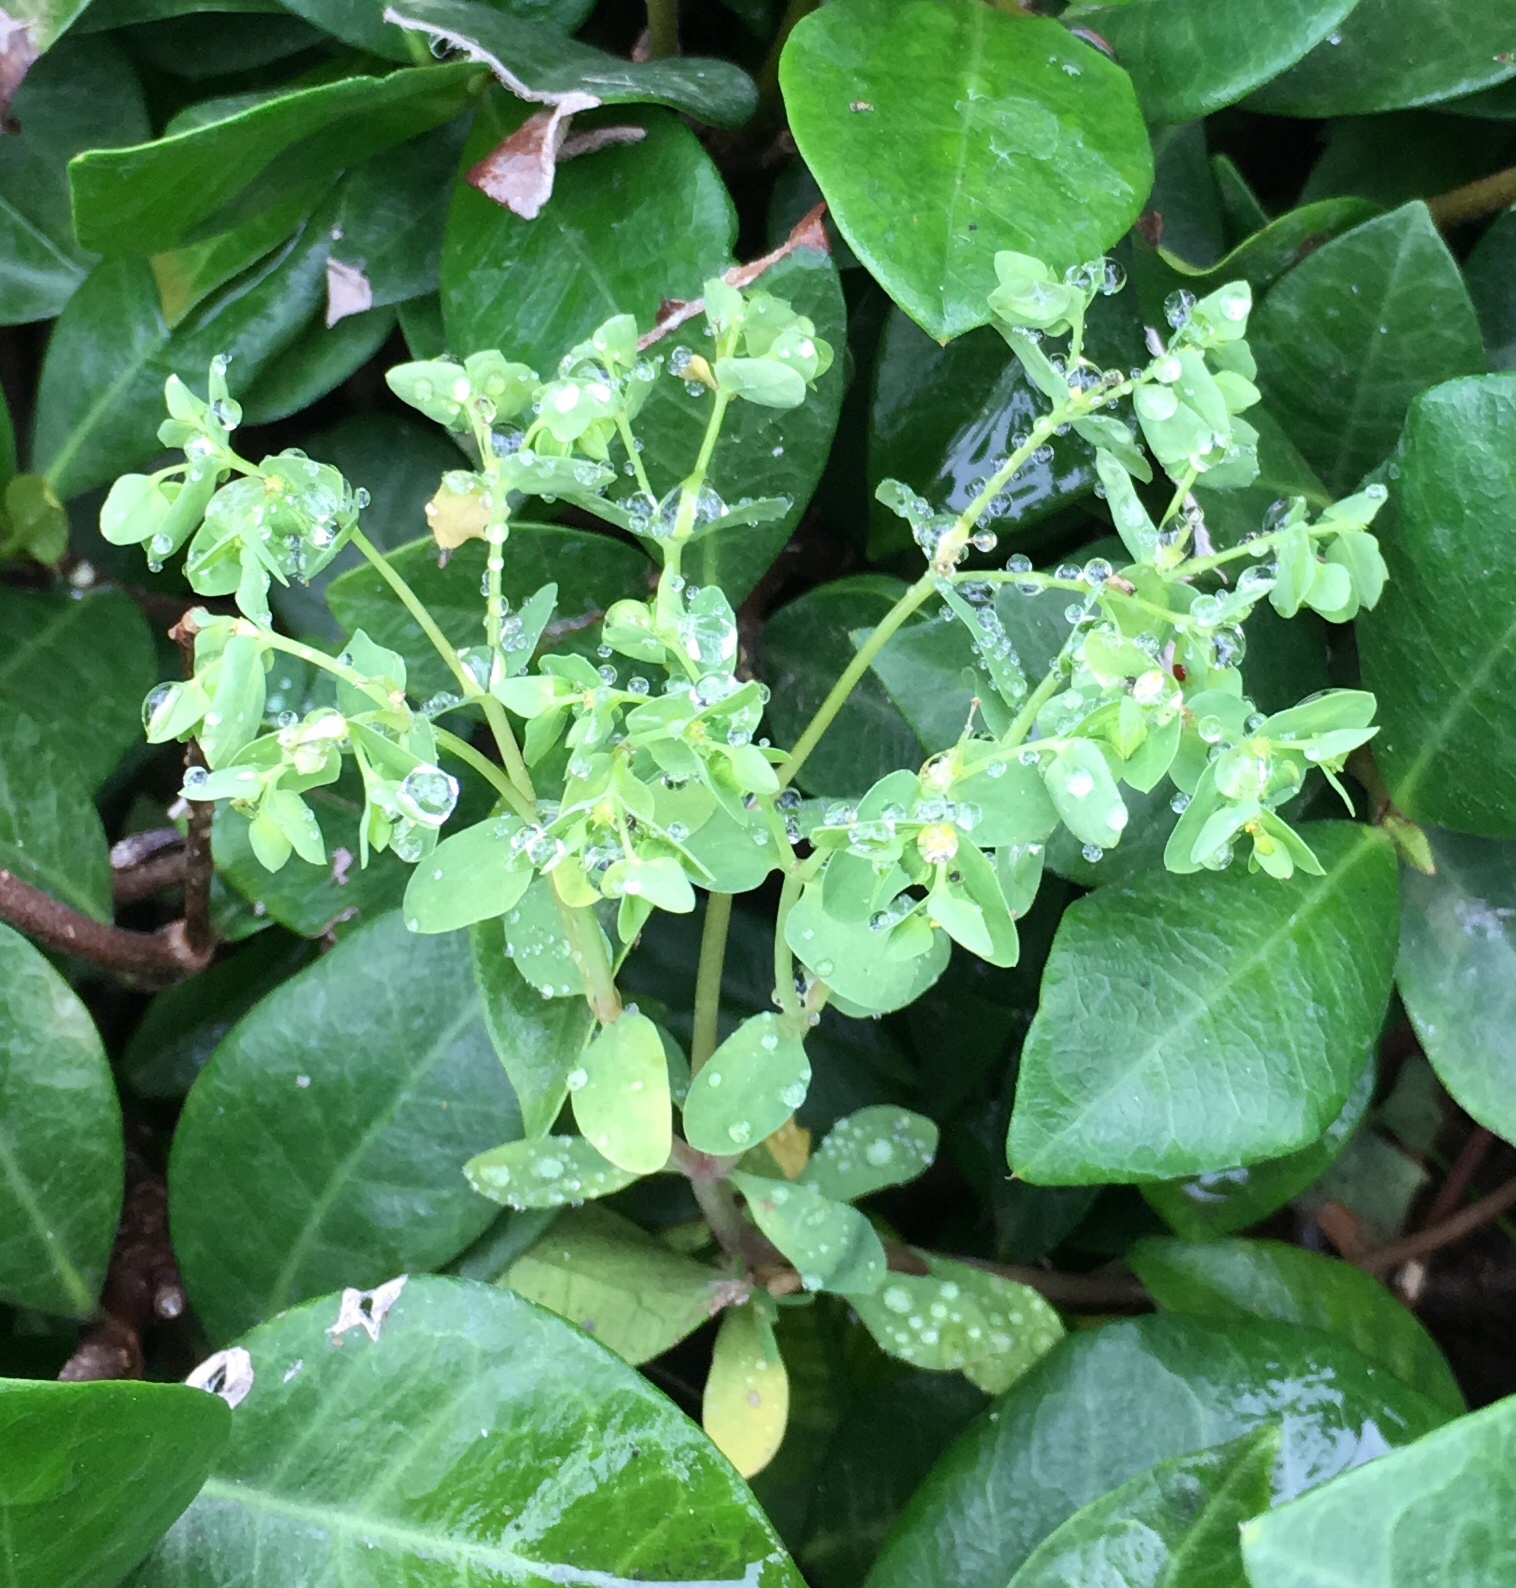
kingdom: Plantae
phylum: Tracheophyta
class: Magnoliopsida
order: Malpighiales
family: Euphorbiaceae
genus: Euphorbia
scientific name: Euphorbia peplus
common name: Petty spurge
